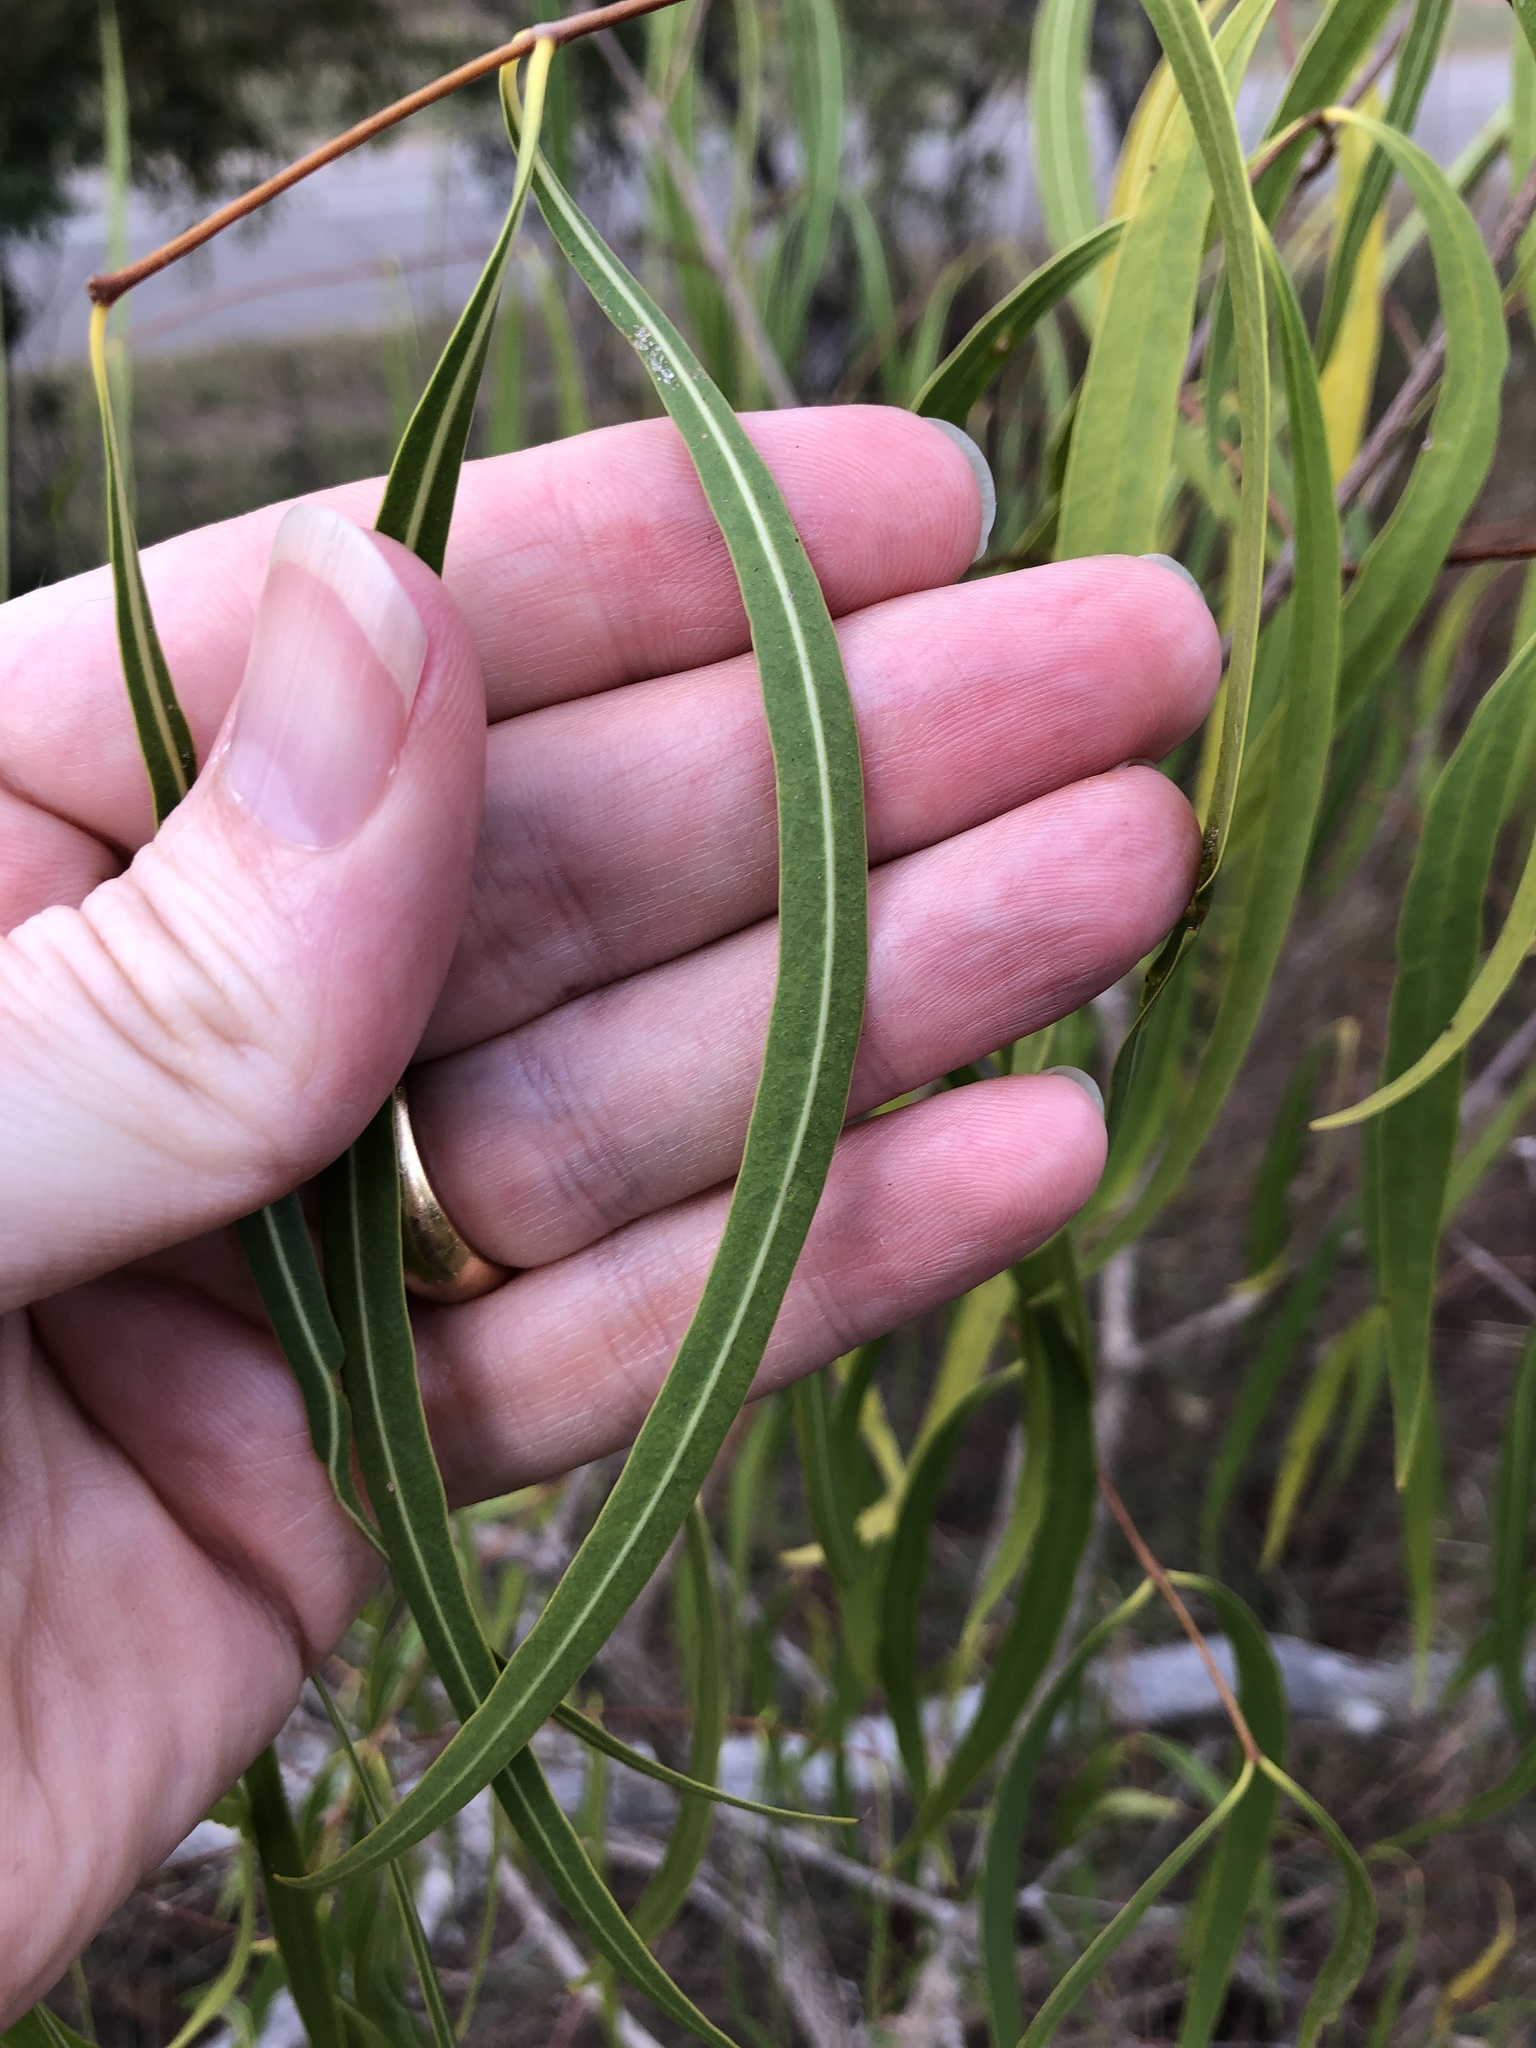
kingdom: Plantae
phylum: Tracheophyta
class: Magnoliopsida
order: Gentianales
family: Apocynaceae
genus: Wrightia
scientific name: Wrightia saligna
